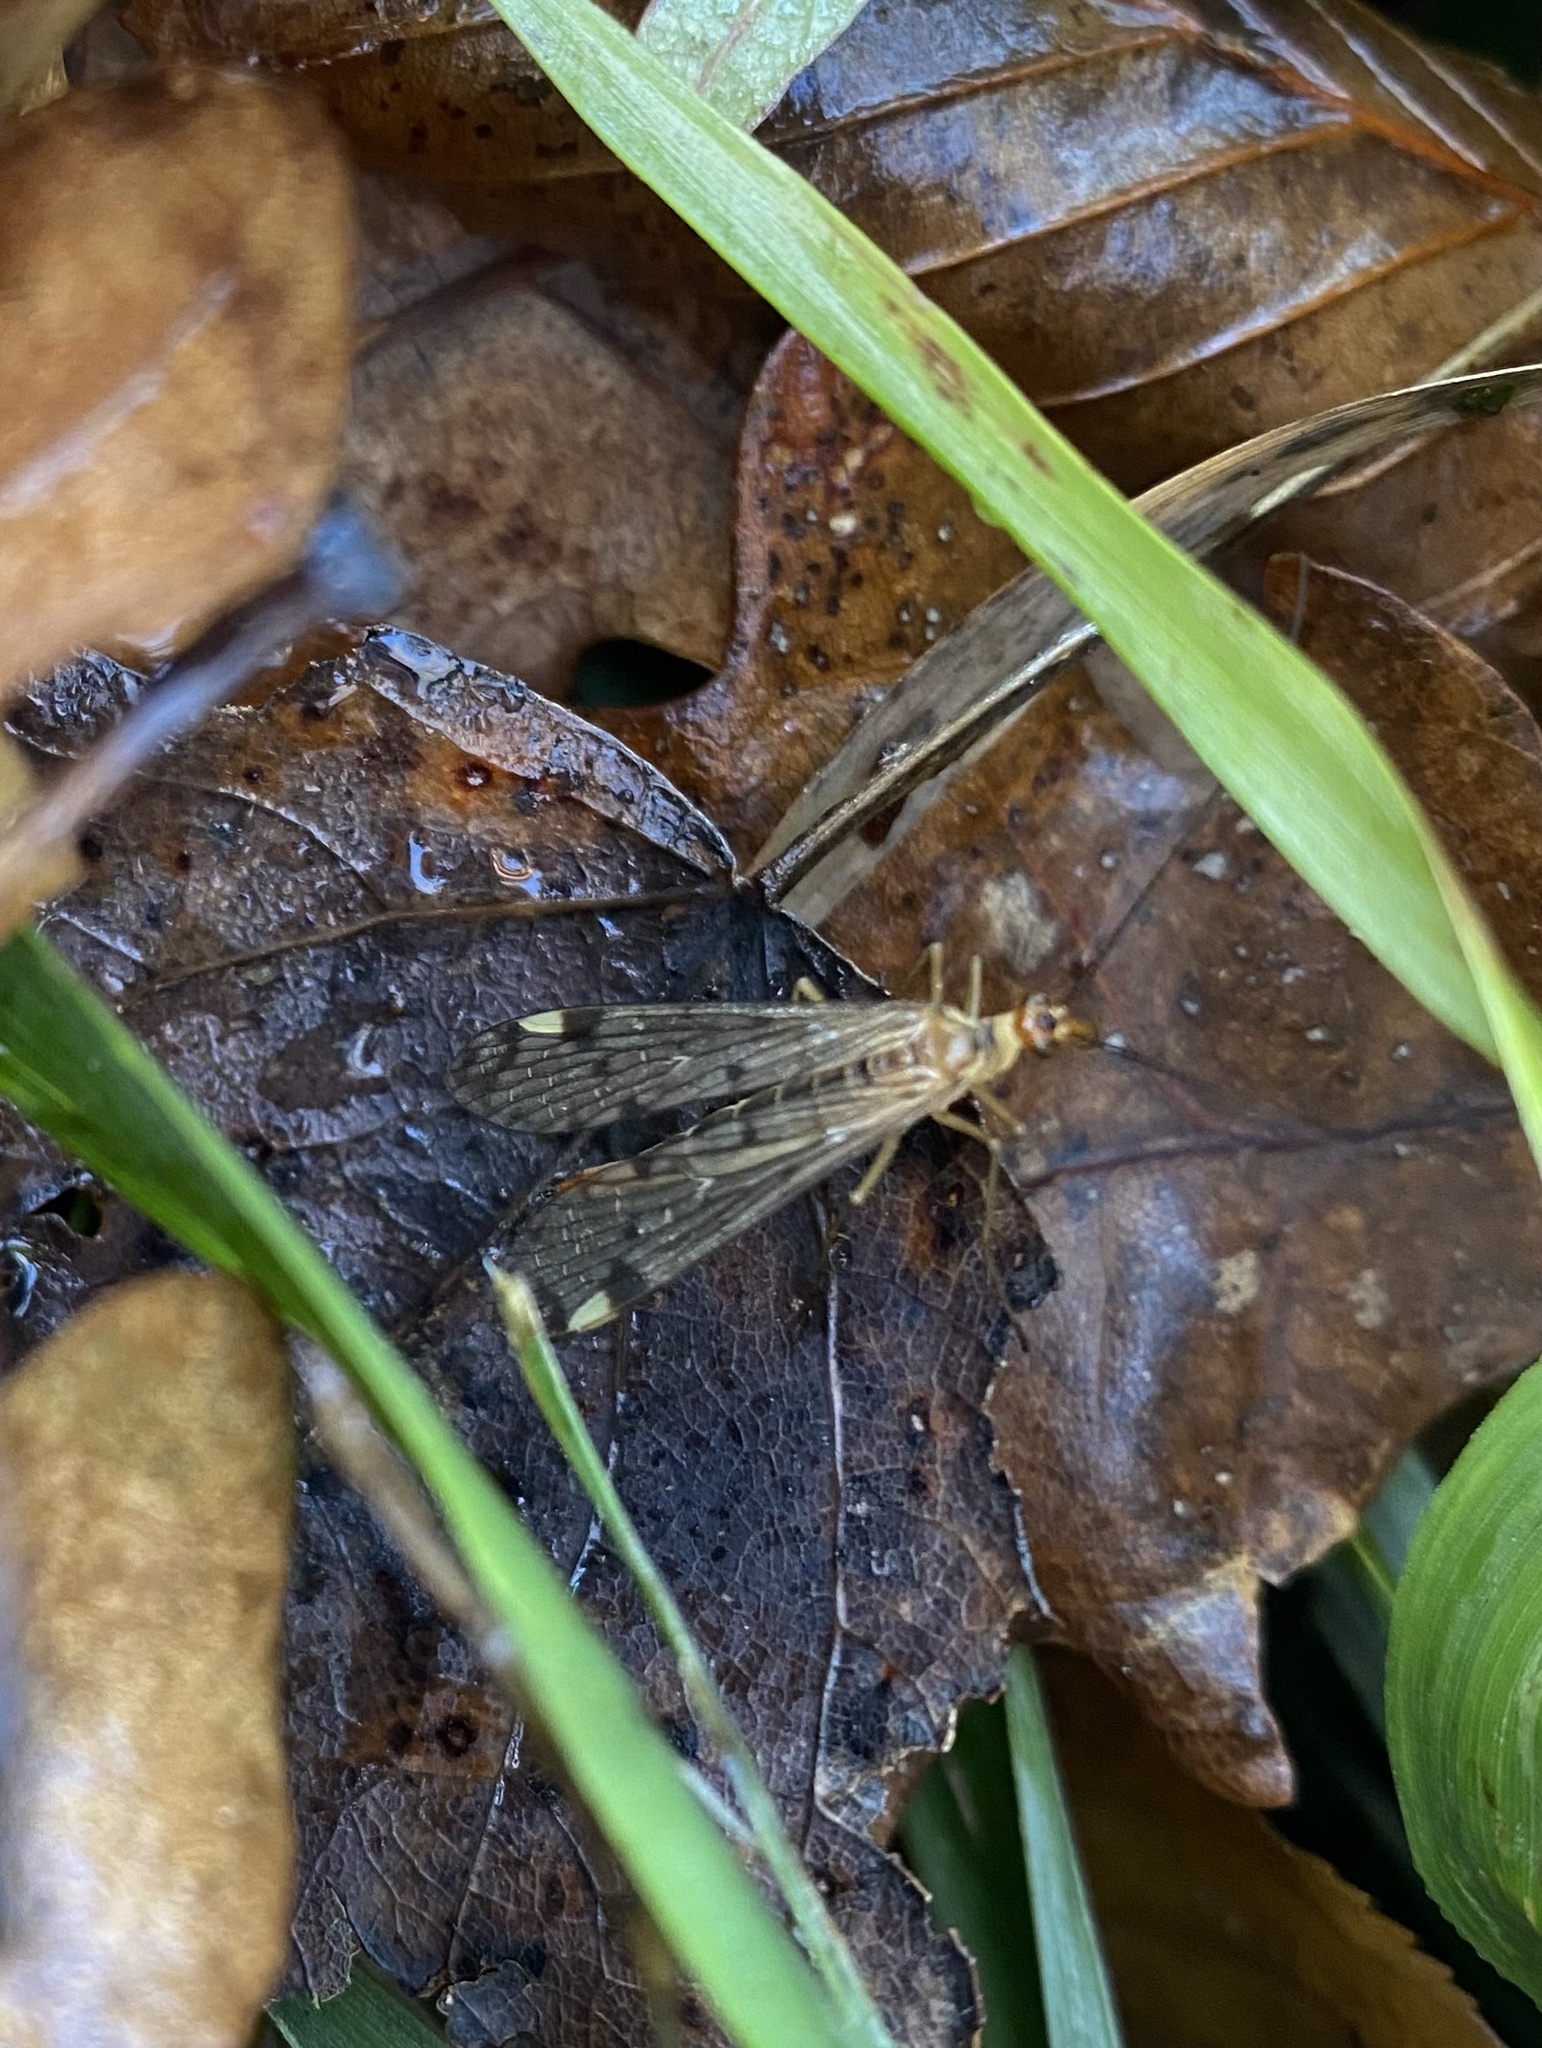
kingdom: Animalia
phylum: Arthropoda
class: Insecta
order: Mecoptera
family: Panorpidae
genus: Panorpa
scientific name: Panorpa arcuata
